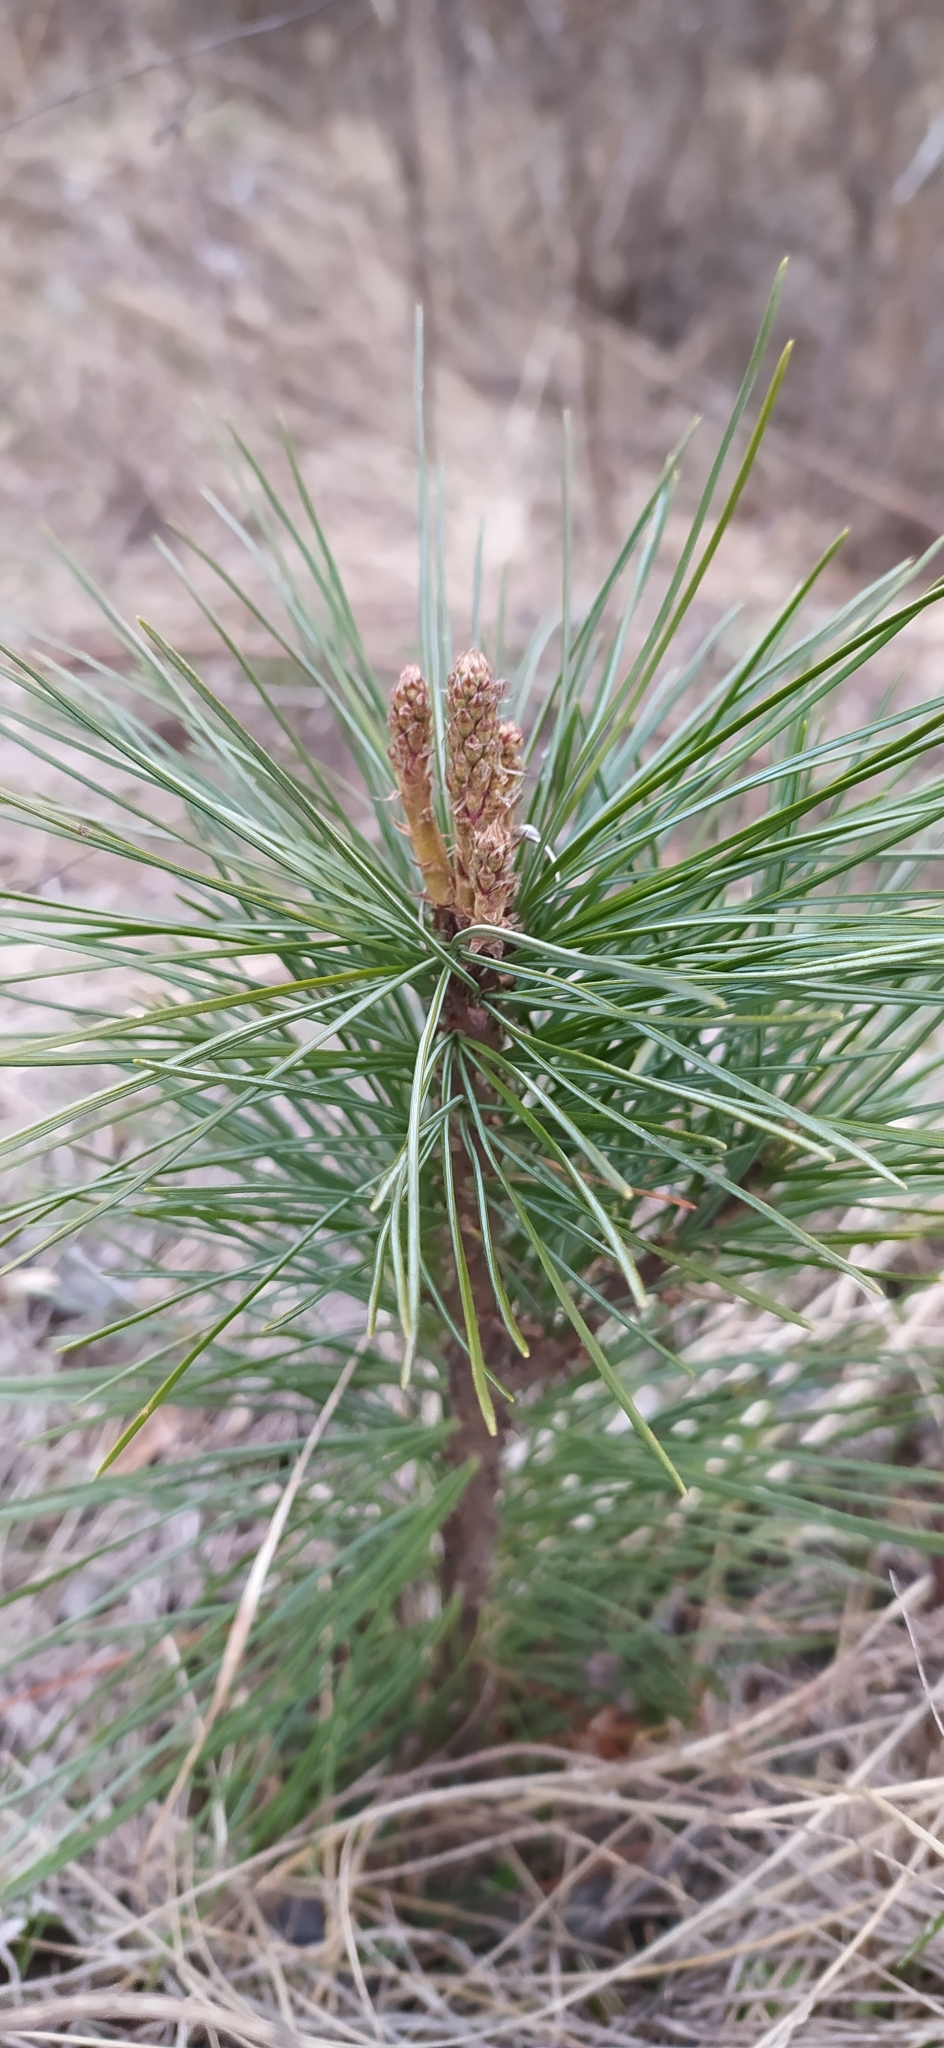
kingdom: Plantae
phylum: Tracheophyta
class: Pinopsida
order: Pinales
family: Pinaceae
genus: Pinus
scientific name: Pinus sylvestris
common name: Scots pine
